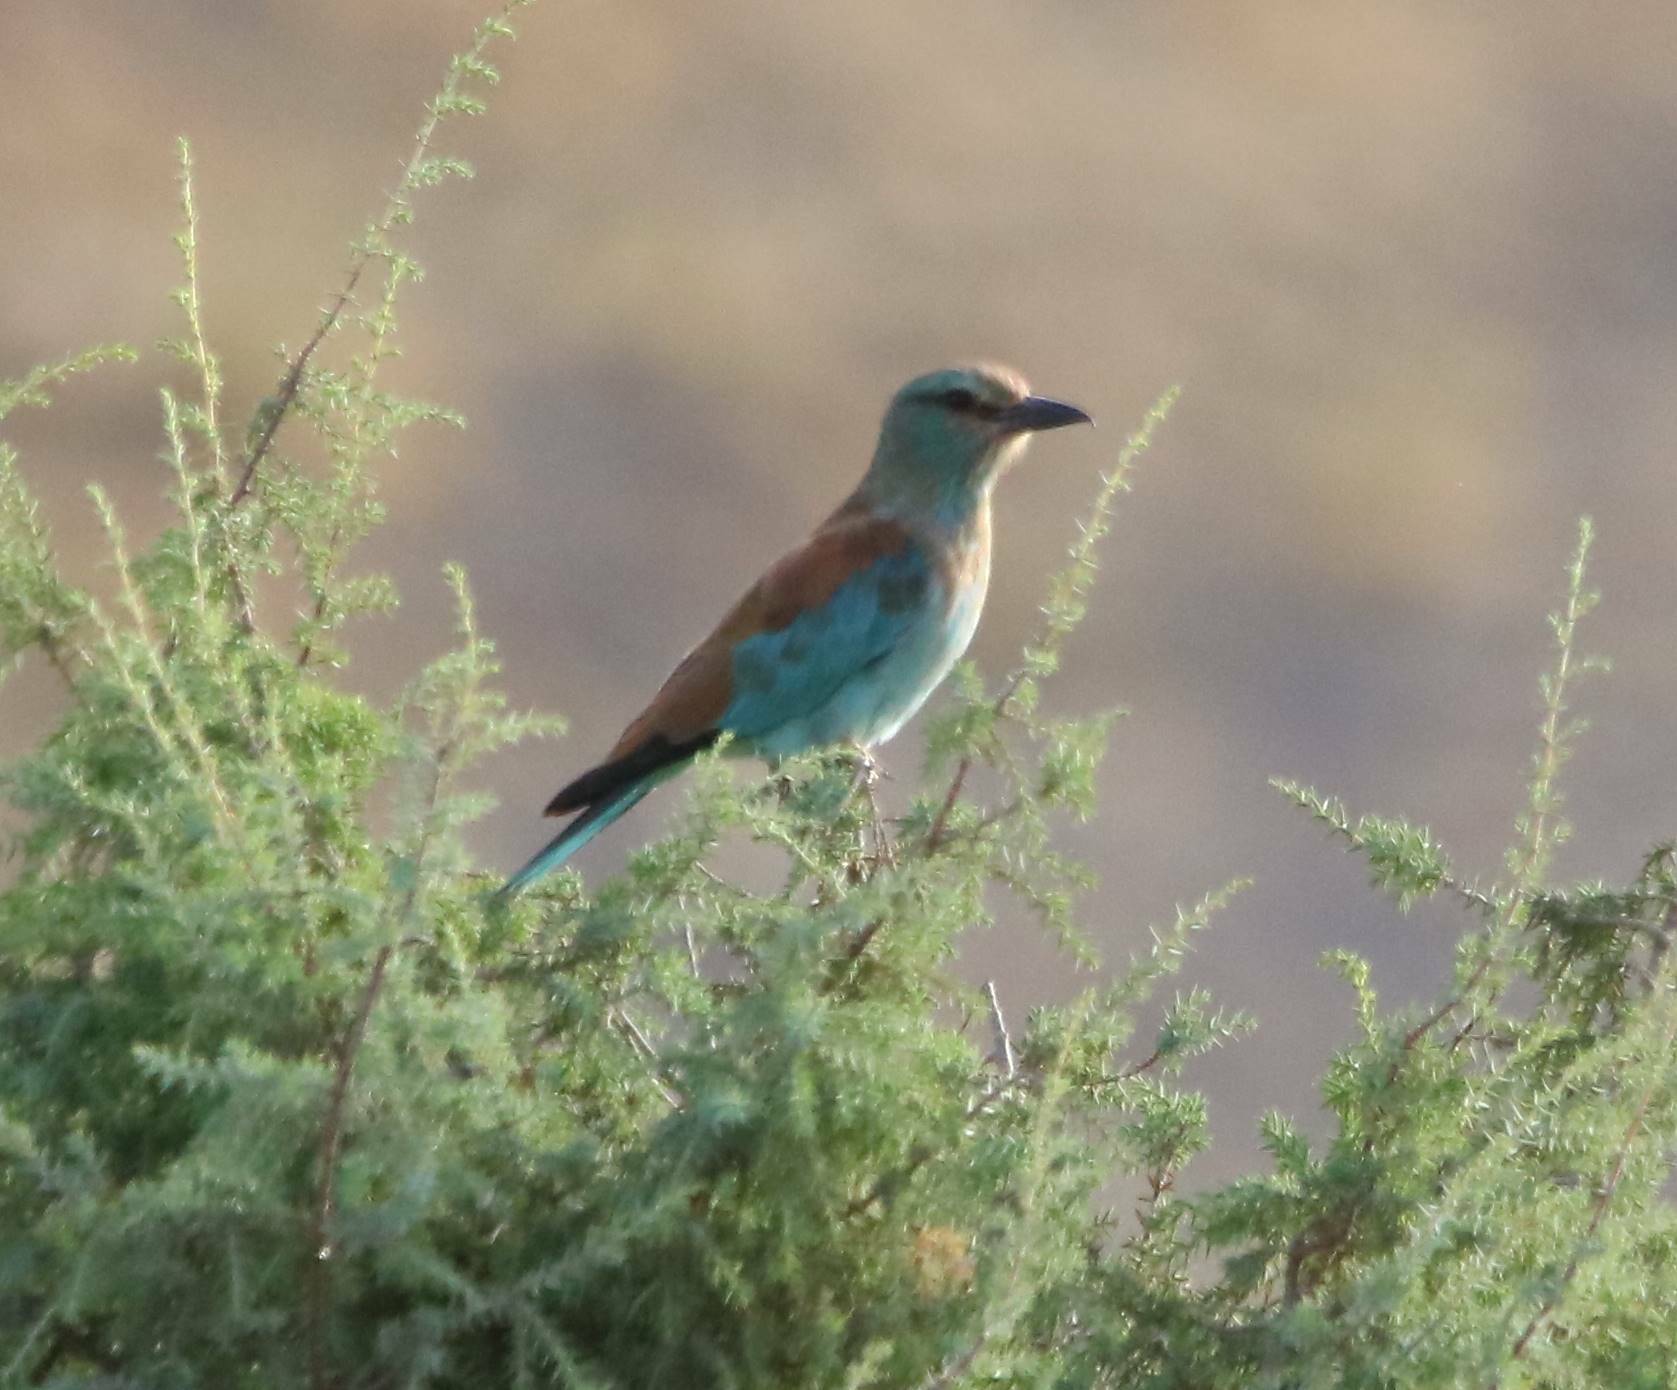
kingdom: Animalia
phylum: Chordata
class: Aves
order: Coraciiformes
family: Coraciidae
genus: Coracias
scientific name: Coracias garrulus
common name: European roller
